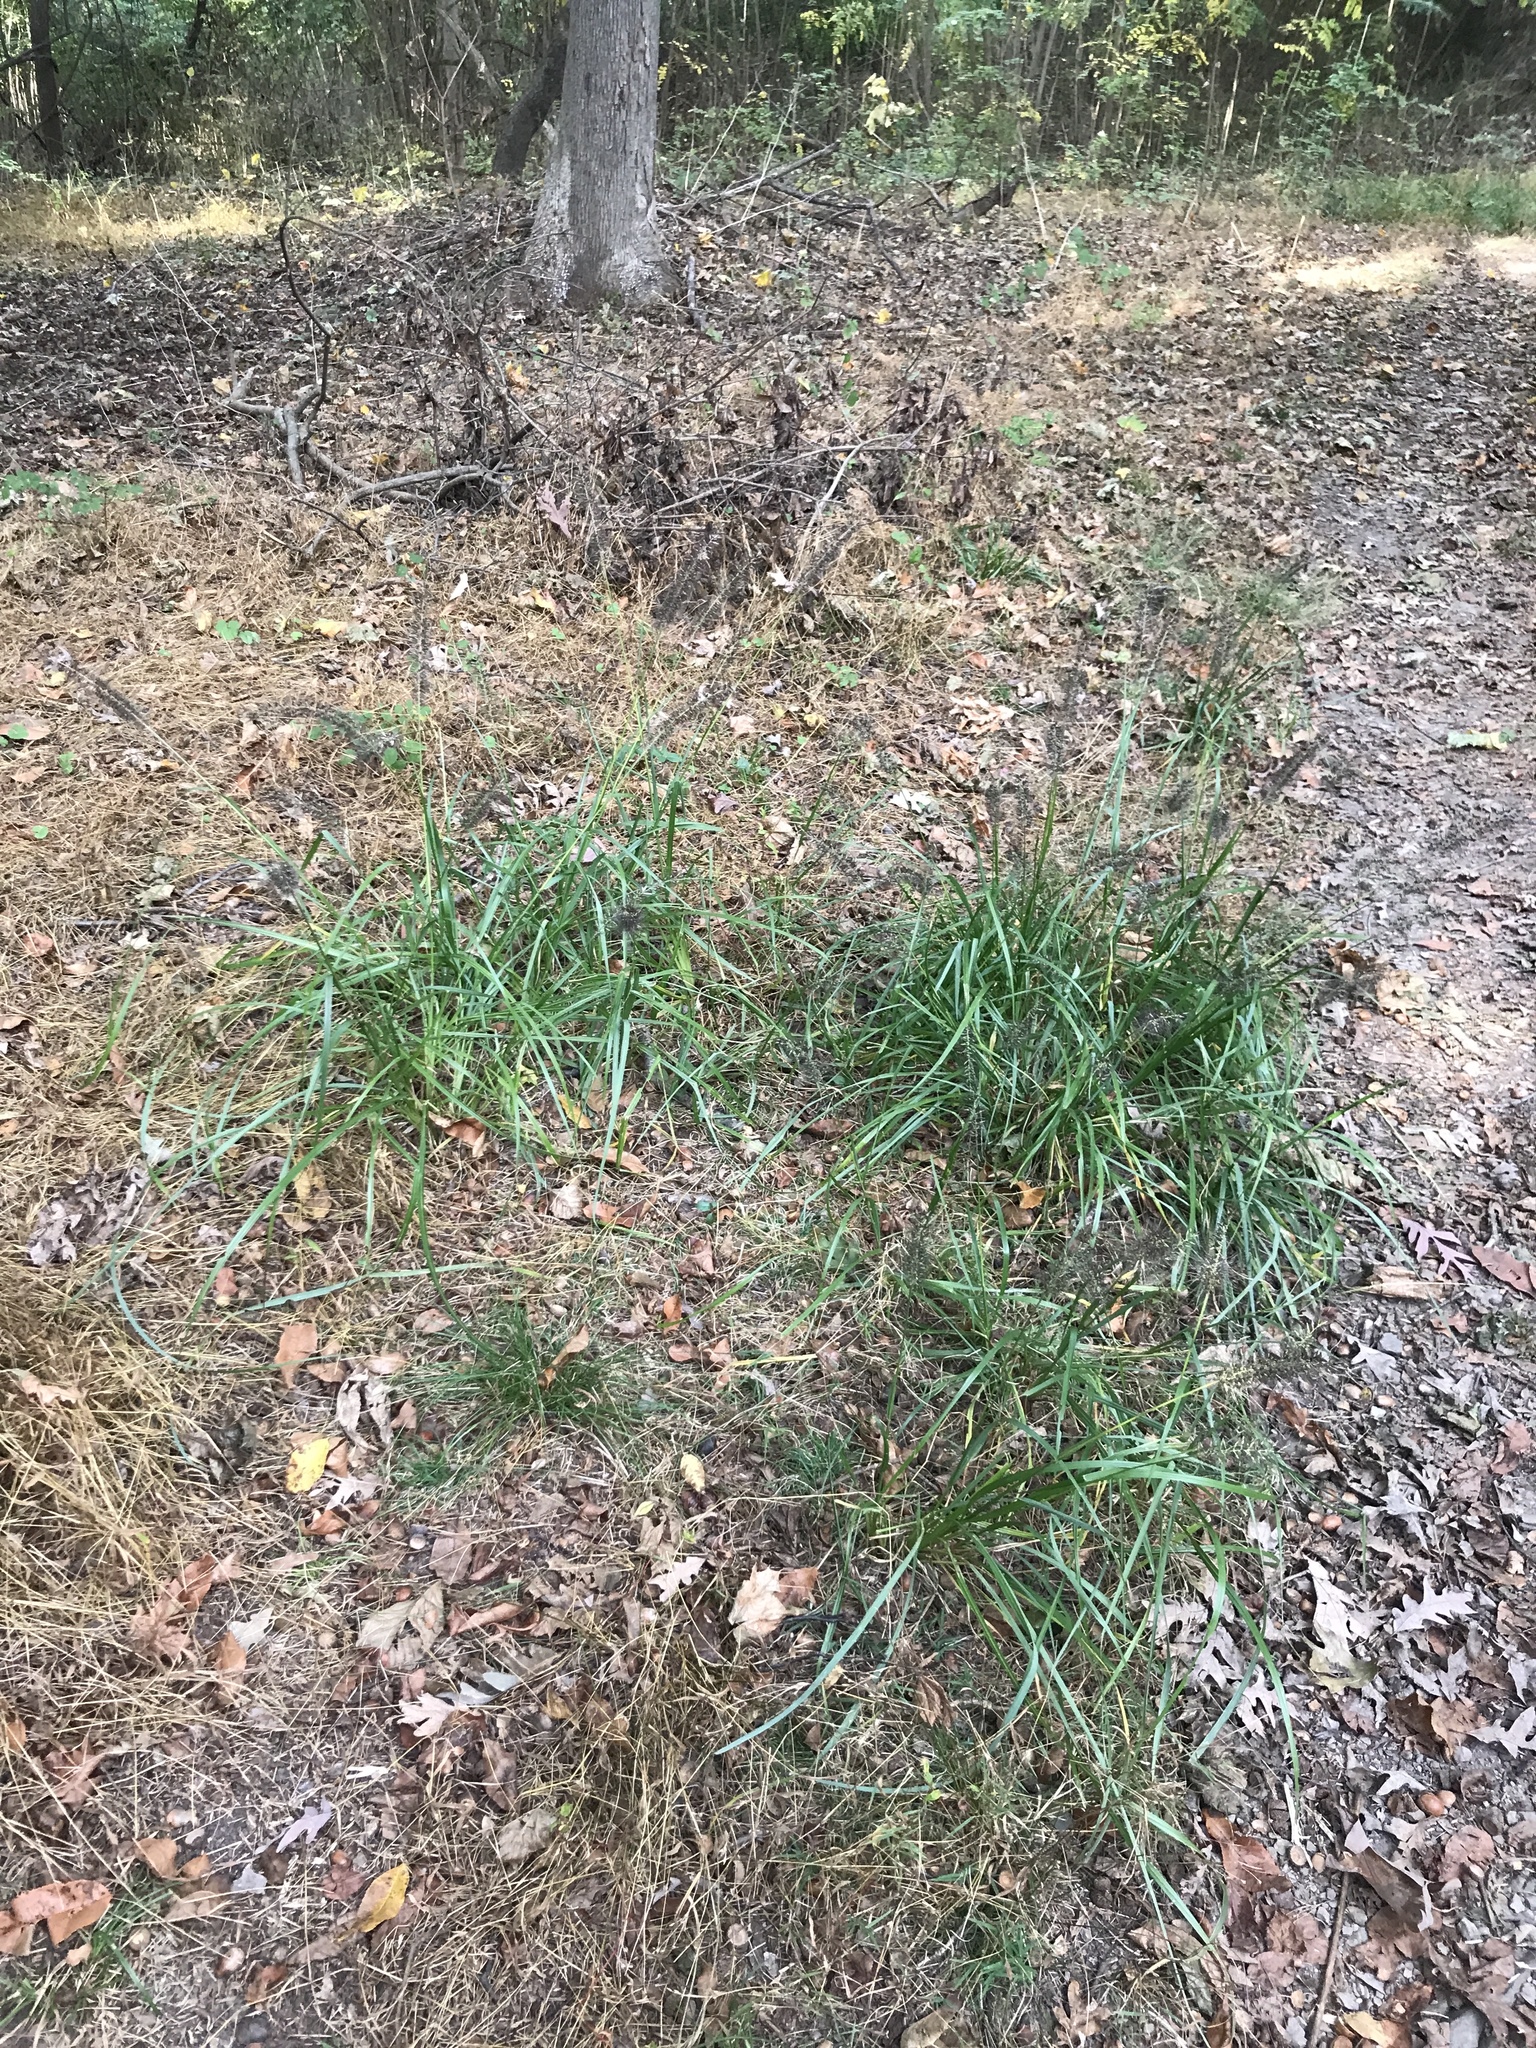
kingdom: Plantae
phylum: Tracheophyta
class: Liliopsida
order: Poales
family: Poaceae
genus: Cenchrus
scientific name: Cenchrus alopecuroides
